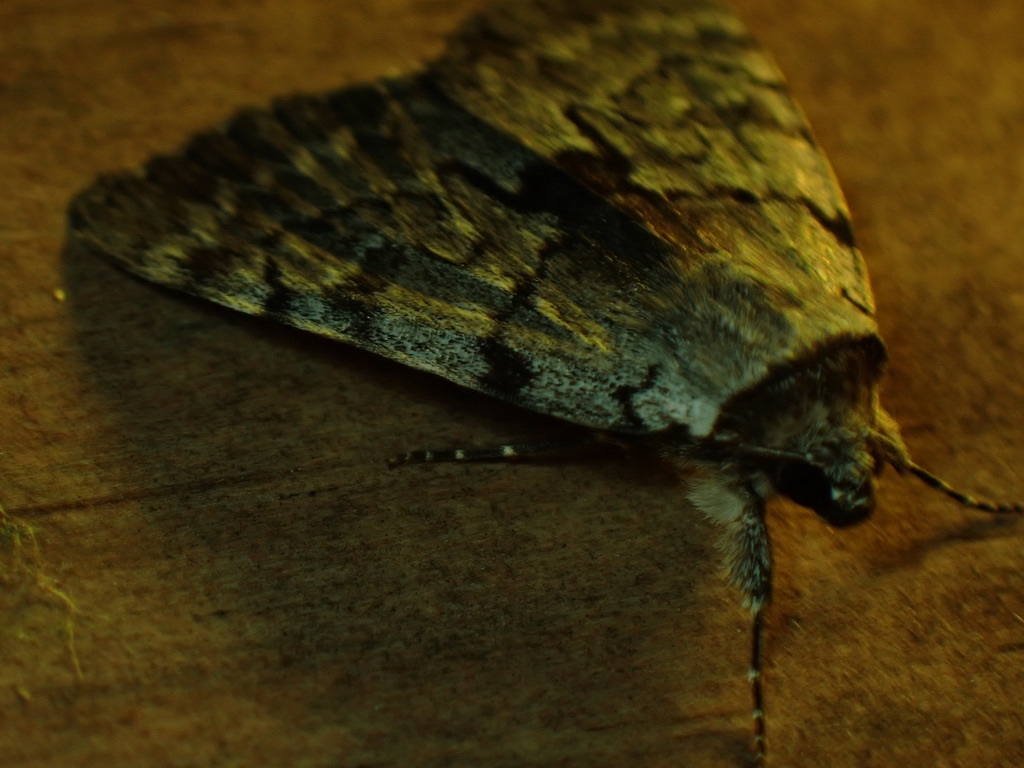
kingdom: Animalia
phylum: Arthropoda
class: Insecta
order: Lepidoptera
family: Erebidae
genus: Catocala
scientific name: Catocala sordida
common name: Sordid underwing
